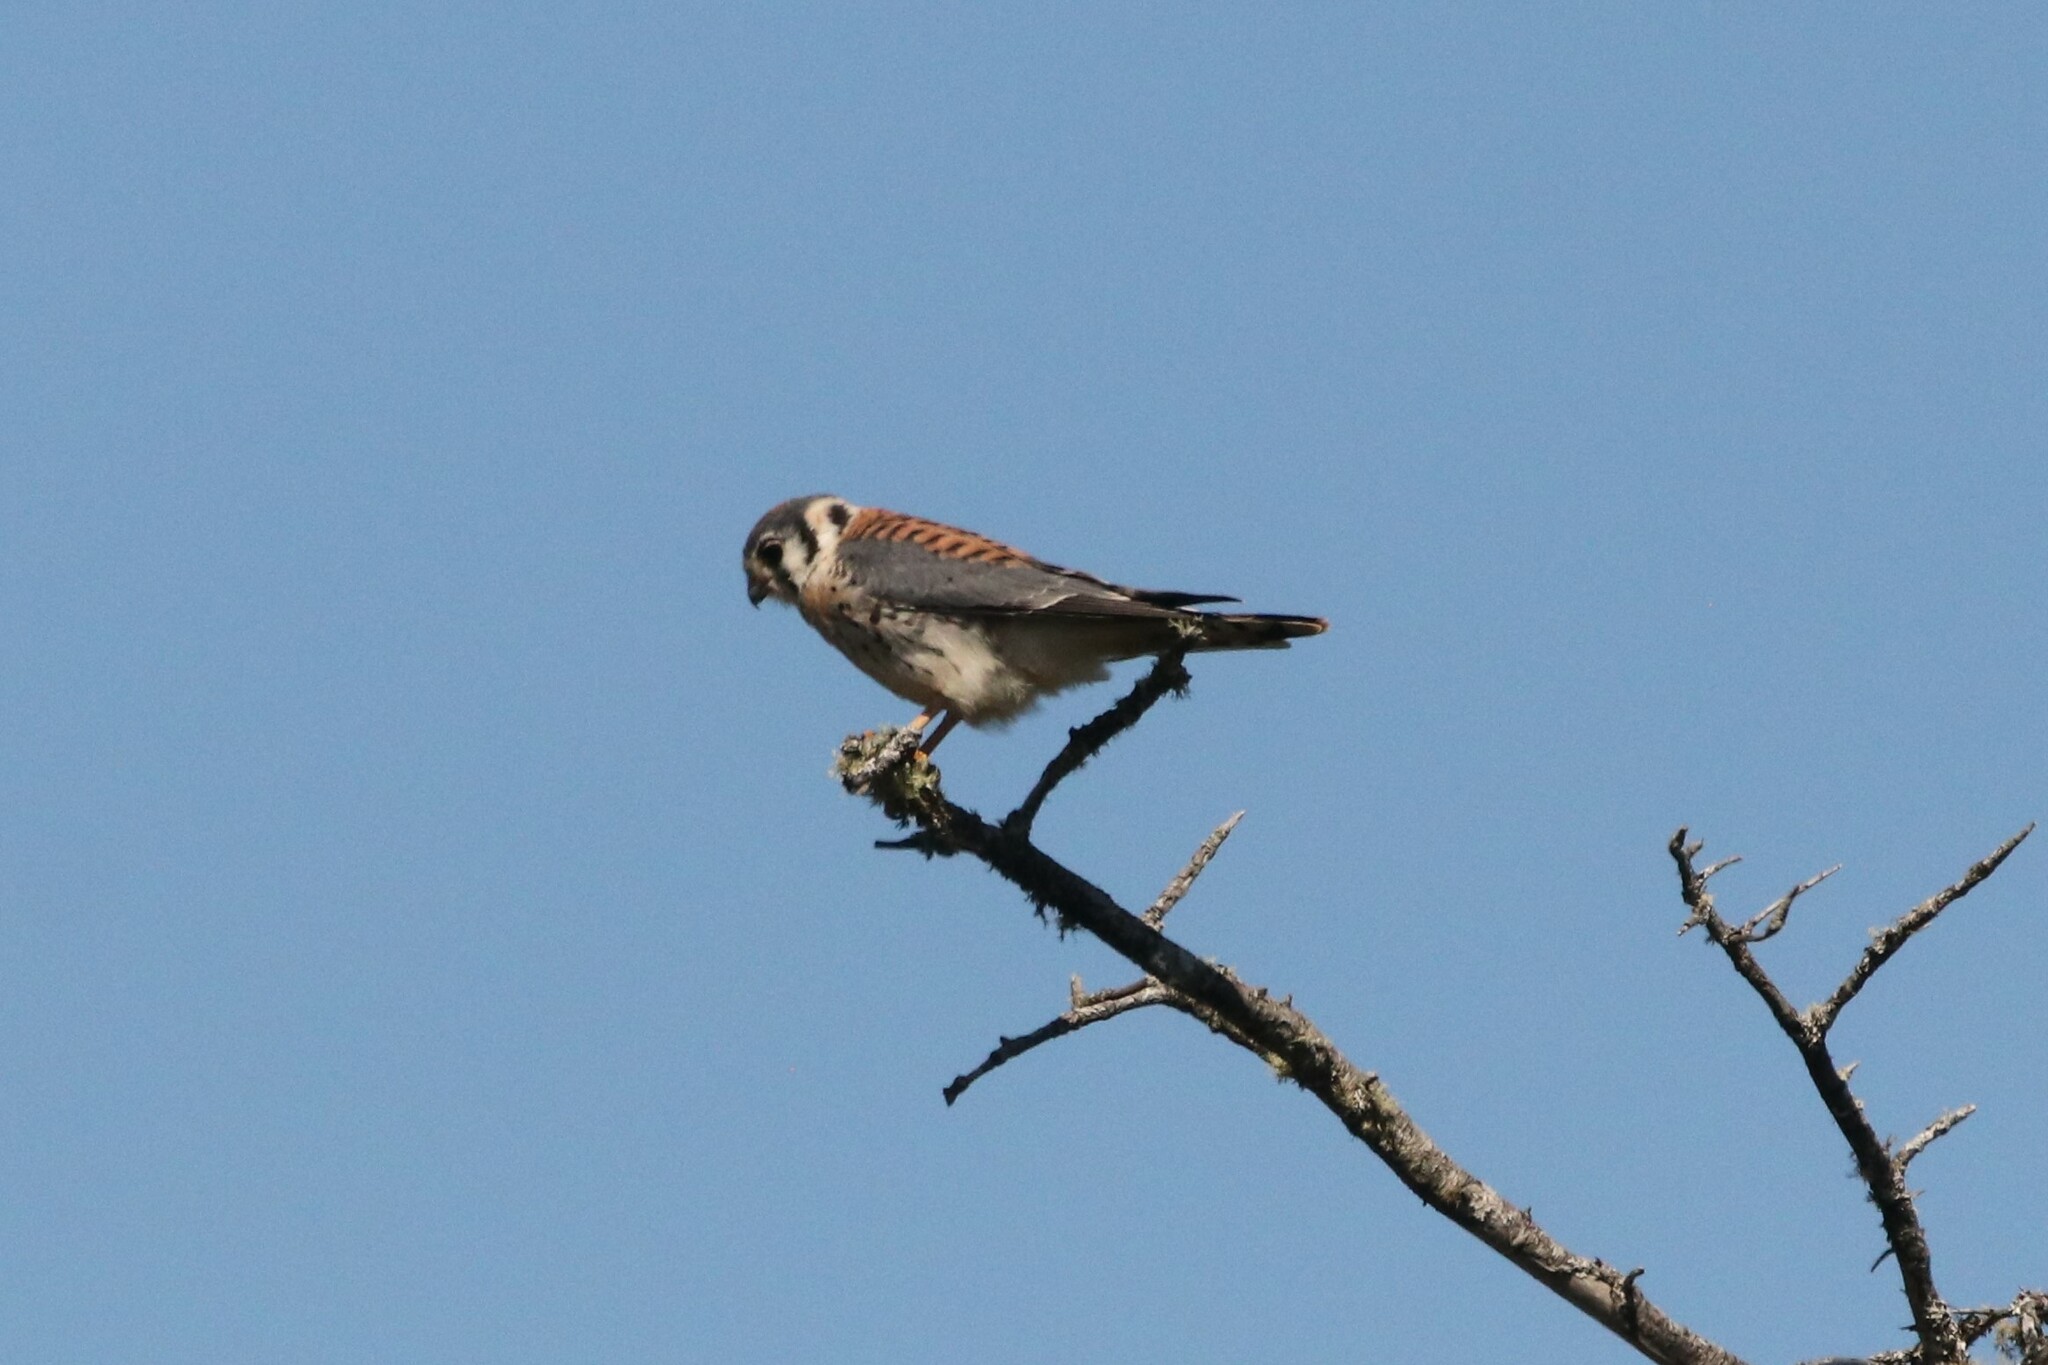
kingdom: Animalia
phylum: Chordata
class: Aves
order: Falconiformes
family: Falconidae
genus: Falco
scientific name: Falco sparverius
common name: American kestrel
